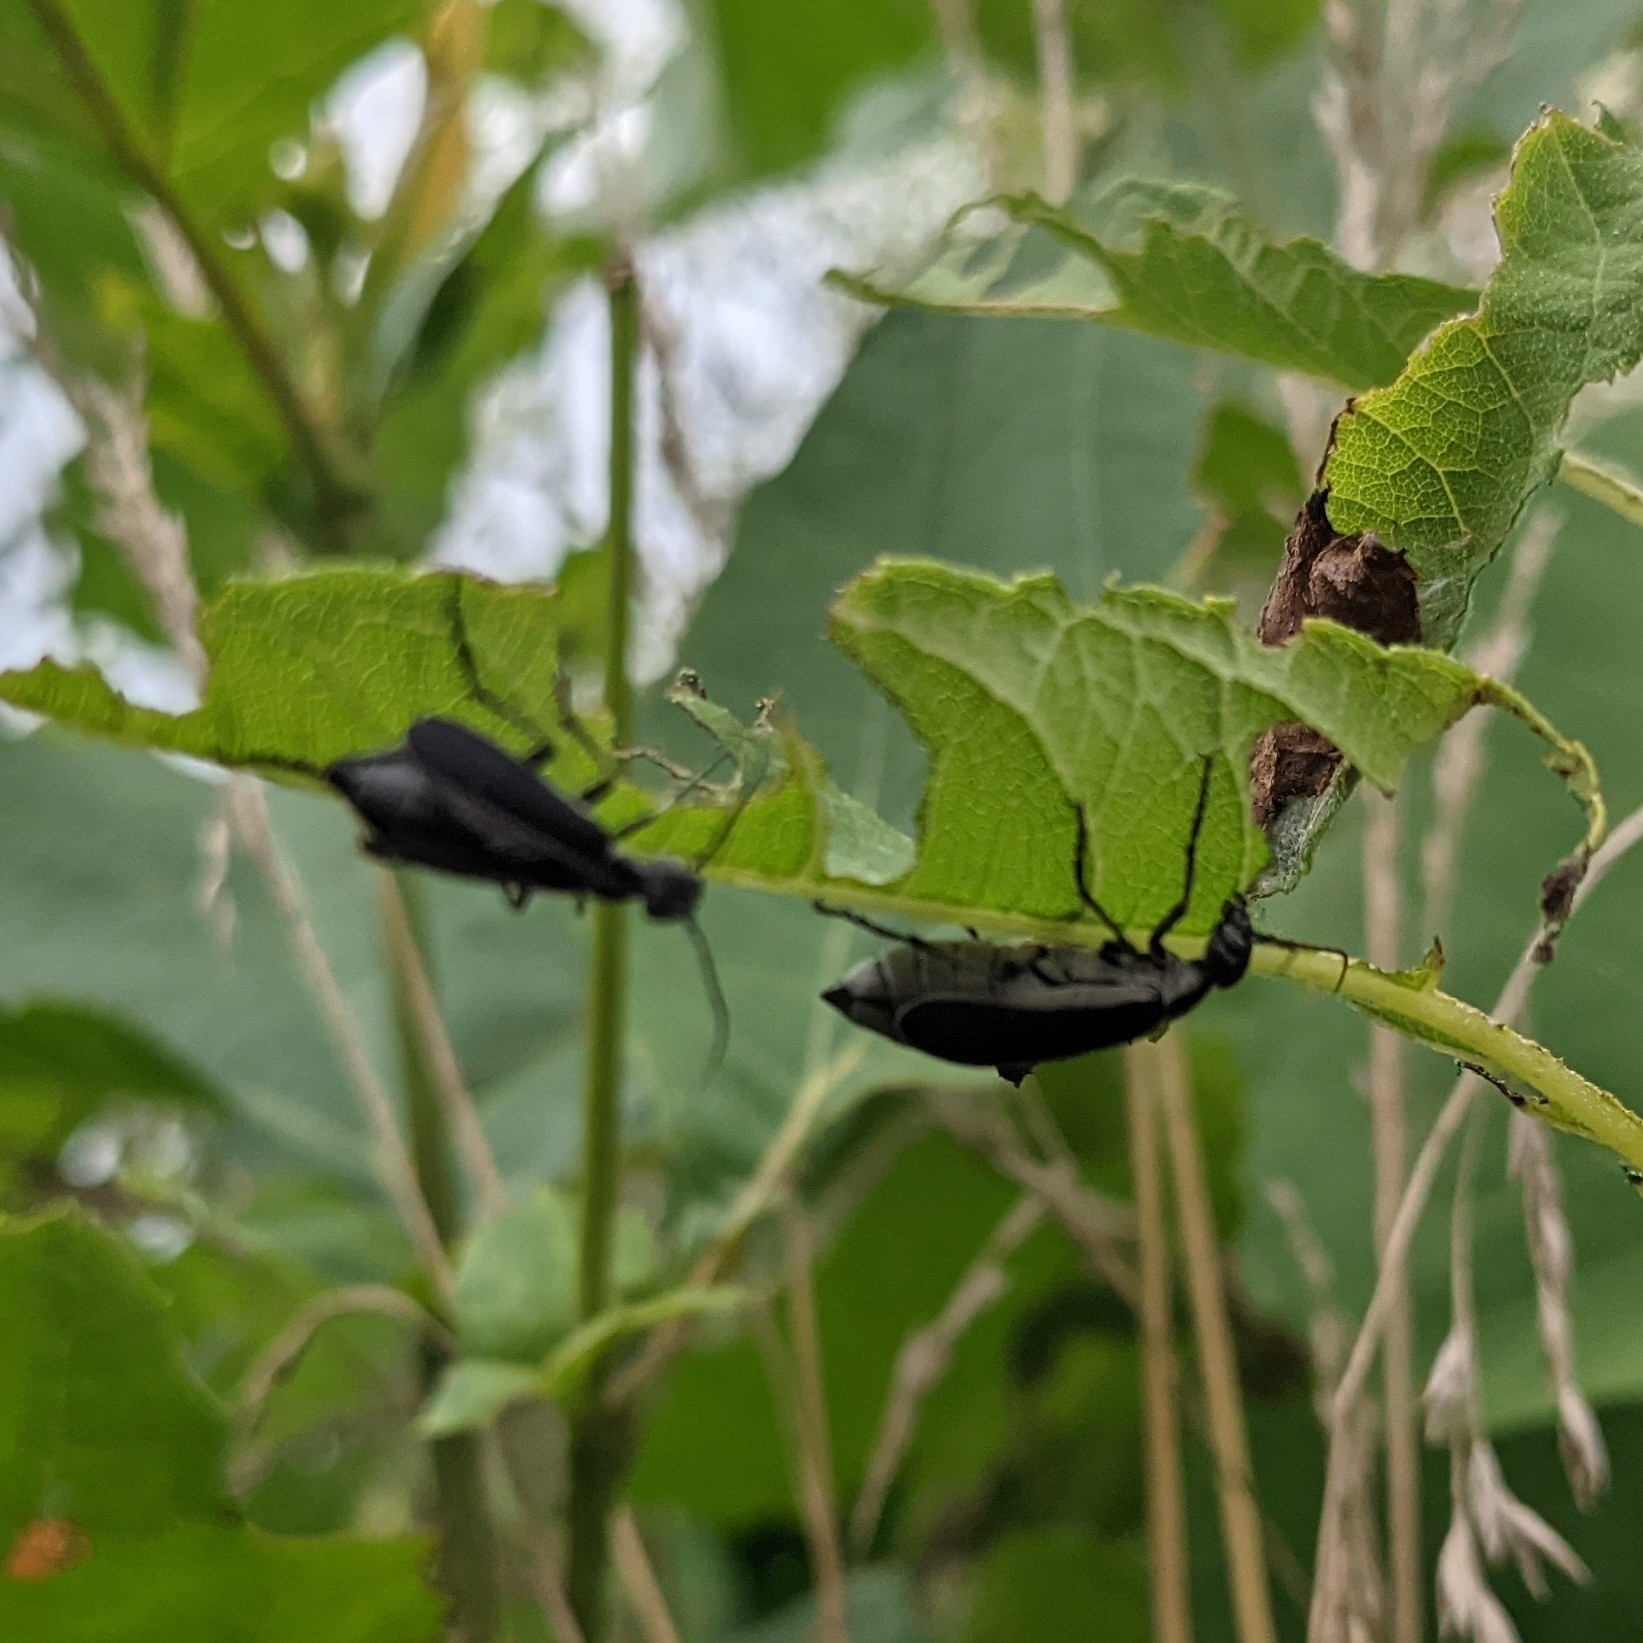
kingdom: Animalia
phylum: Arthropoda
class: Insecta
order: Coleoptera
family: Meloidae
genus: Epicauta
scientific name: Epicauta funebris
